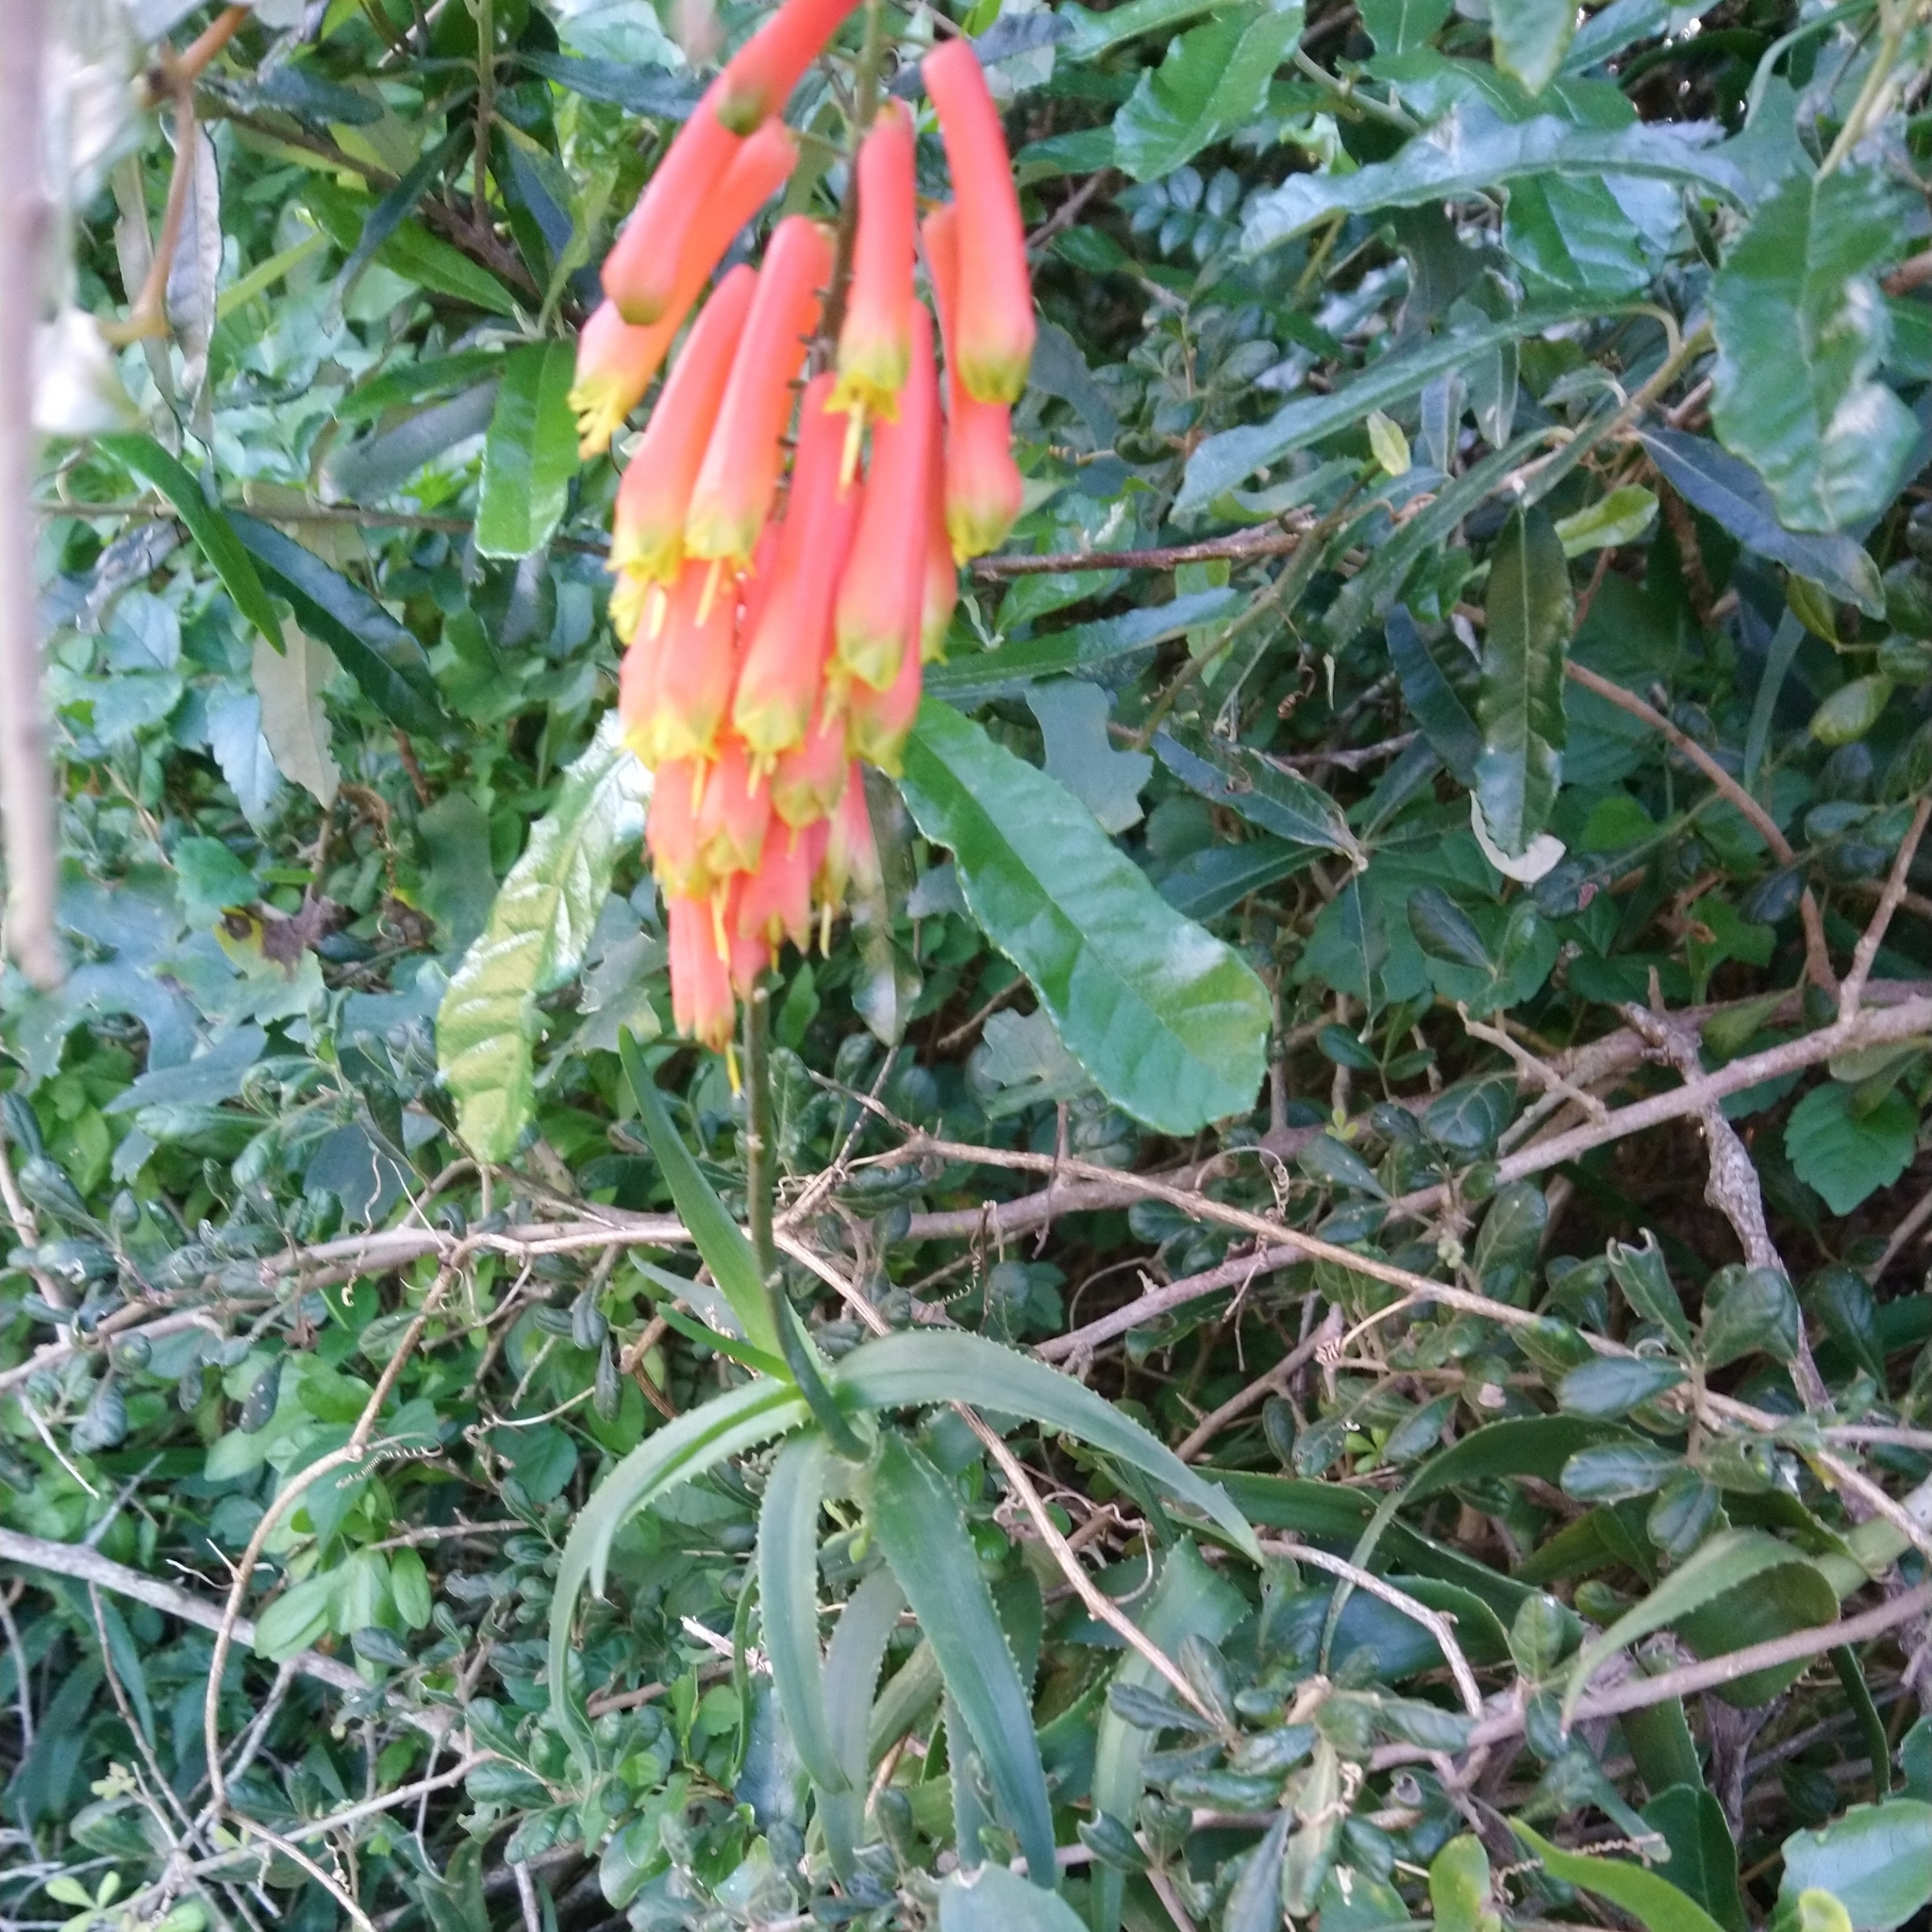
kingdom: Plantae
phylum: Tracheophyta
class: Liliopsida
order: Asparagales
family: Asphodelaceae
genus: Aloiampelos
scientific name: Aloiampelos ciliaris
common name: Climbing aloe
